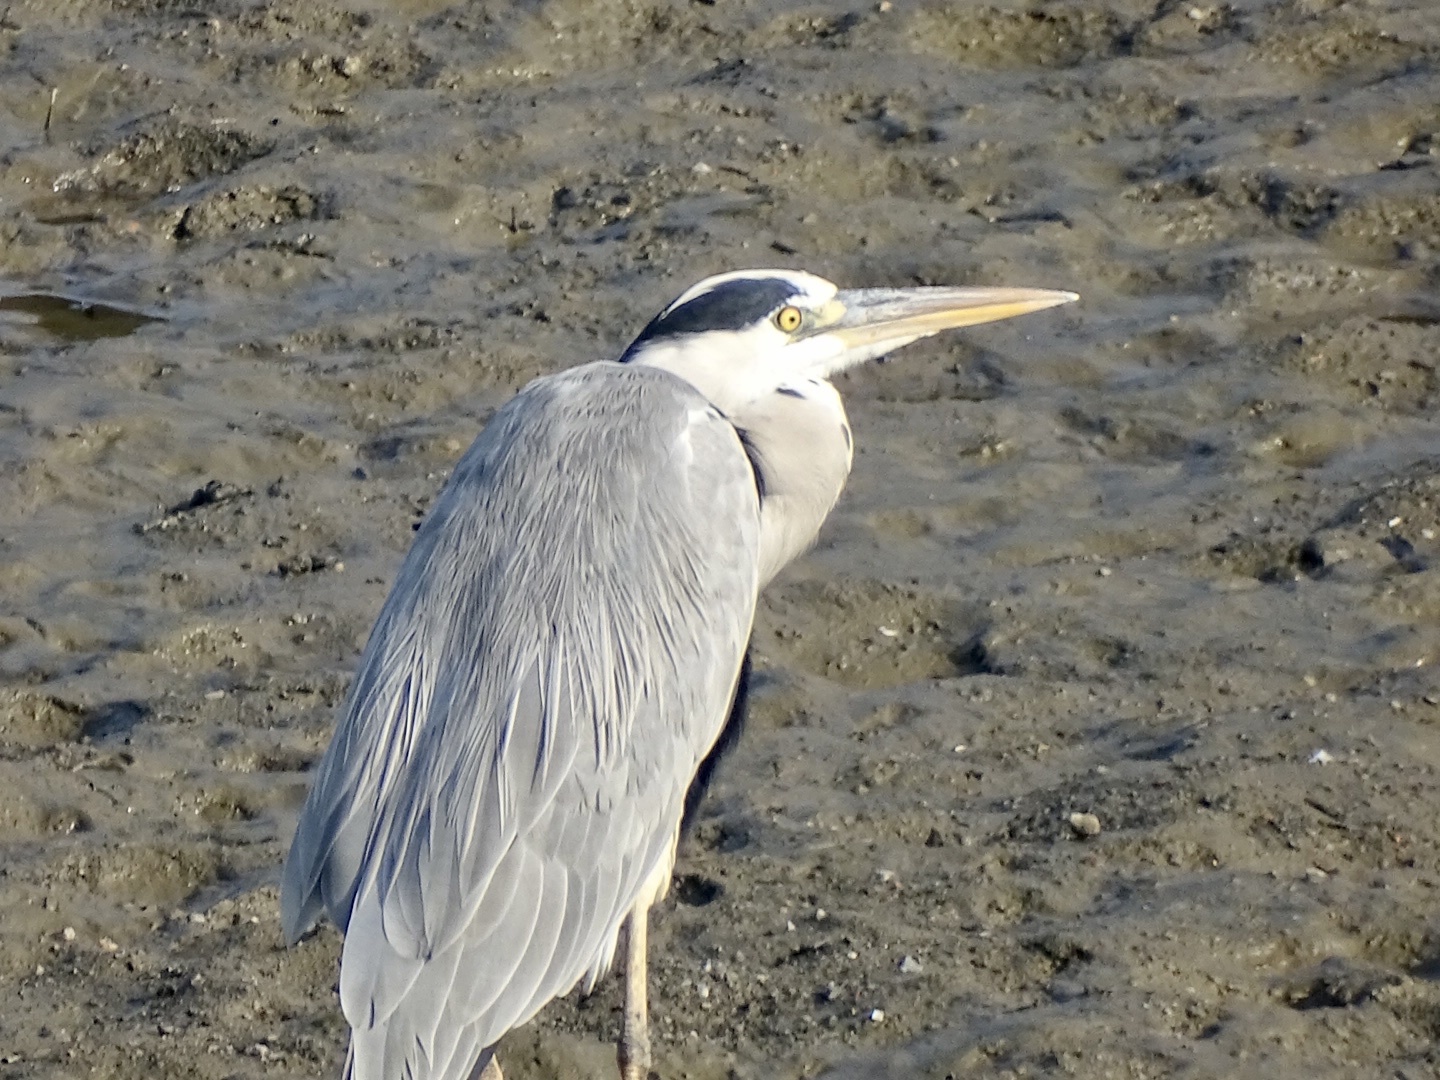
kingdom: Animalia
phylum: Chordata
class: Aves
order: Pelecaniformes
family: Ardeidae
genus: Ardea
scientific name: Ardea cinerea
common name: Grey heron
